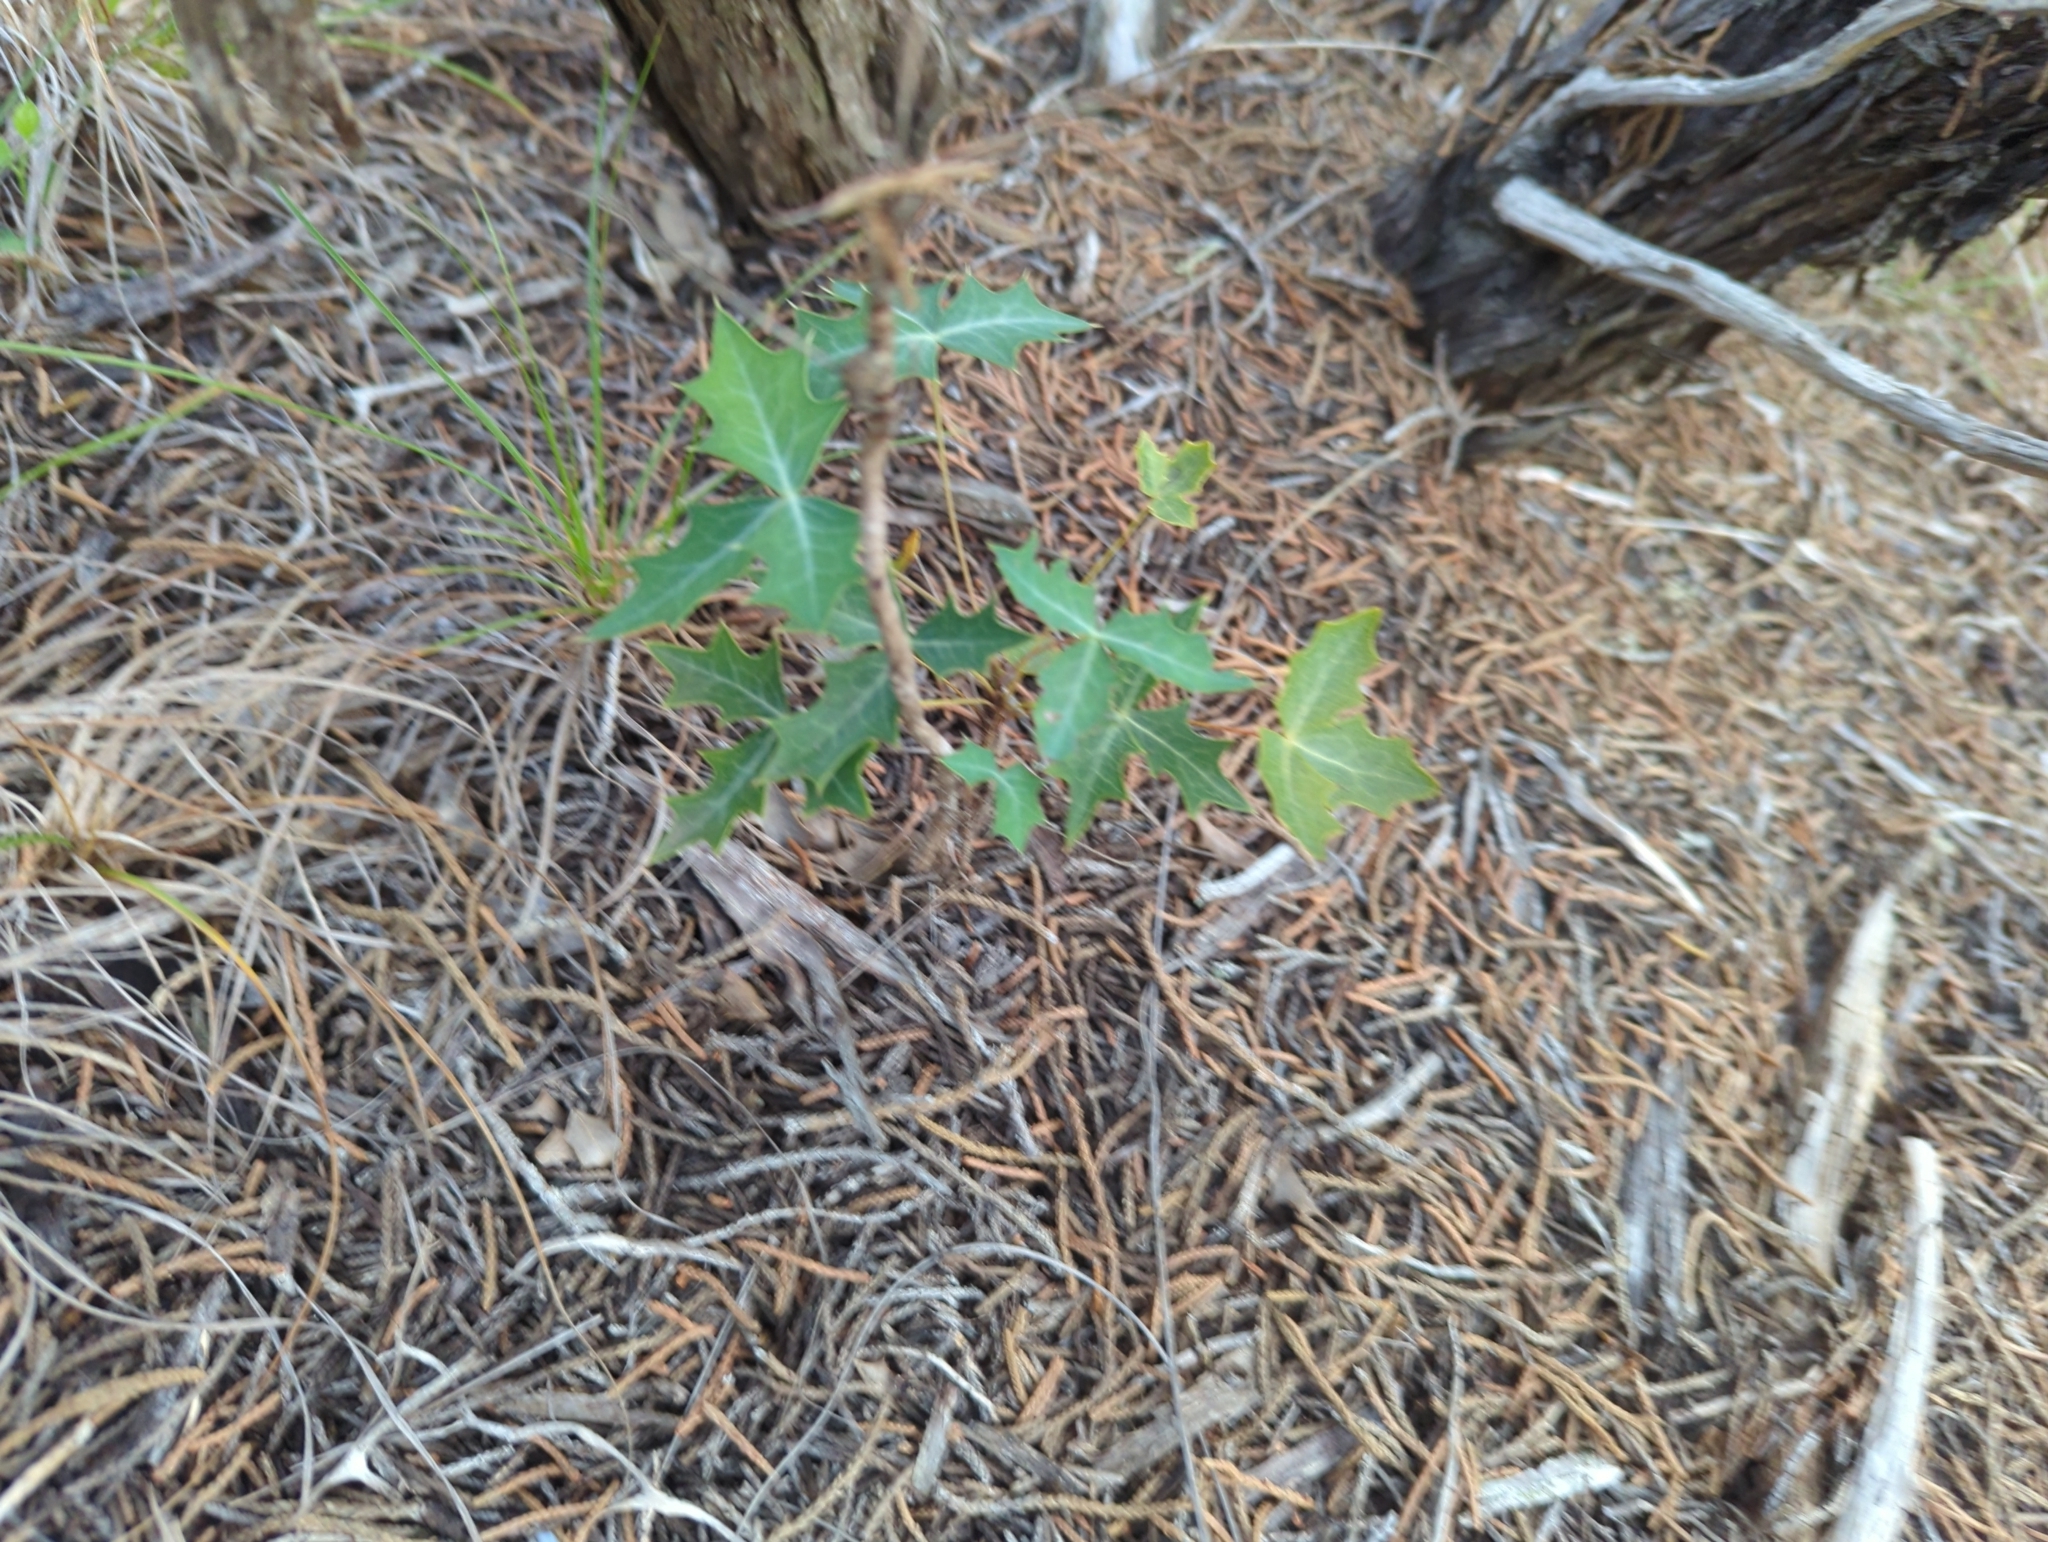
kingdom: Plantae
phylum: Tracheophyta
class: Magnoliopsida
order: Ranunculales
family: Berberidaceae
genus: Alloberberis
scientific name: Alloberberis trifoliolata
